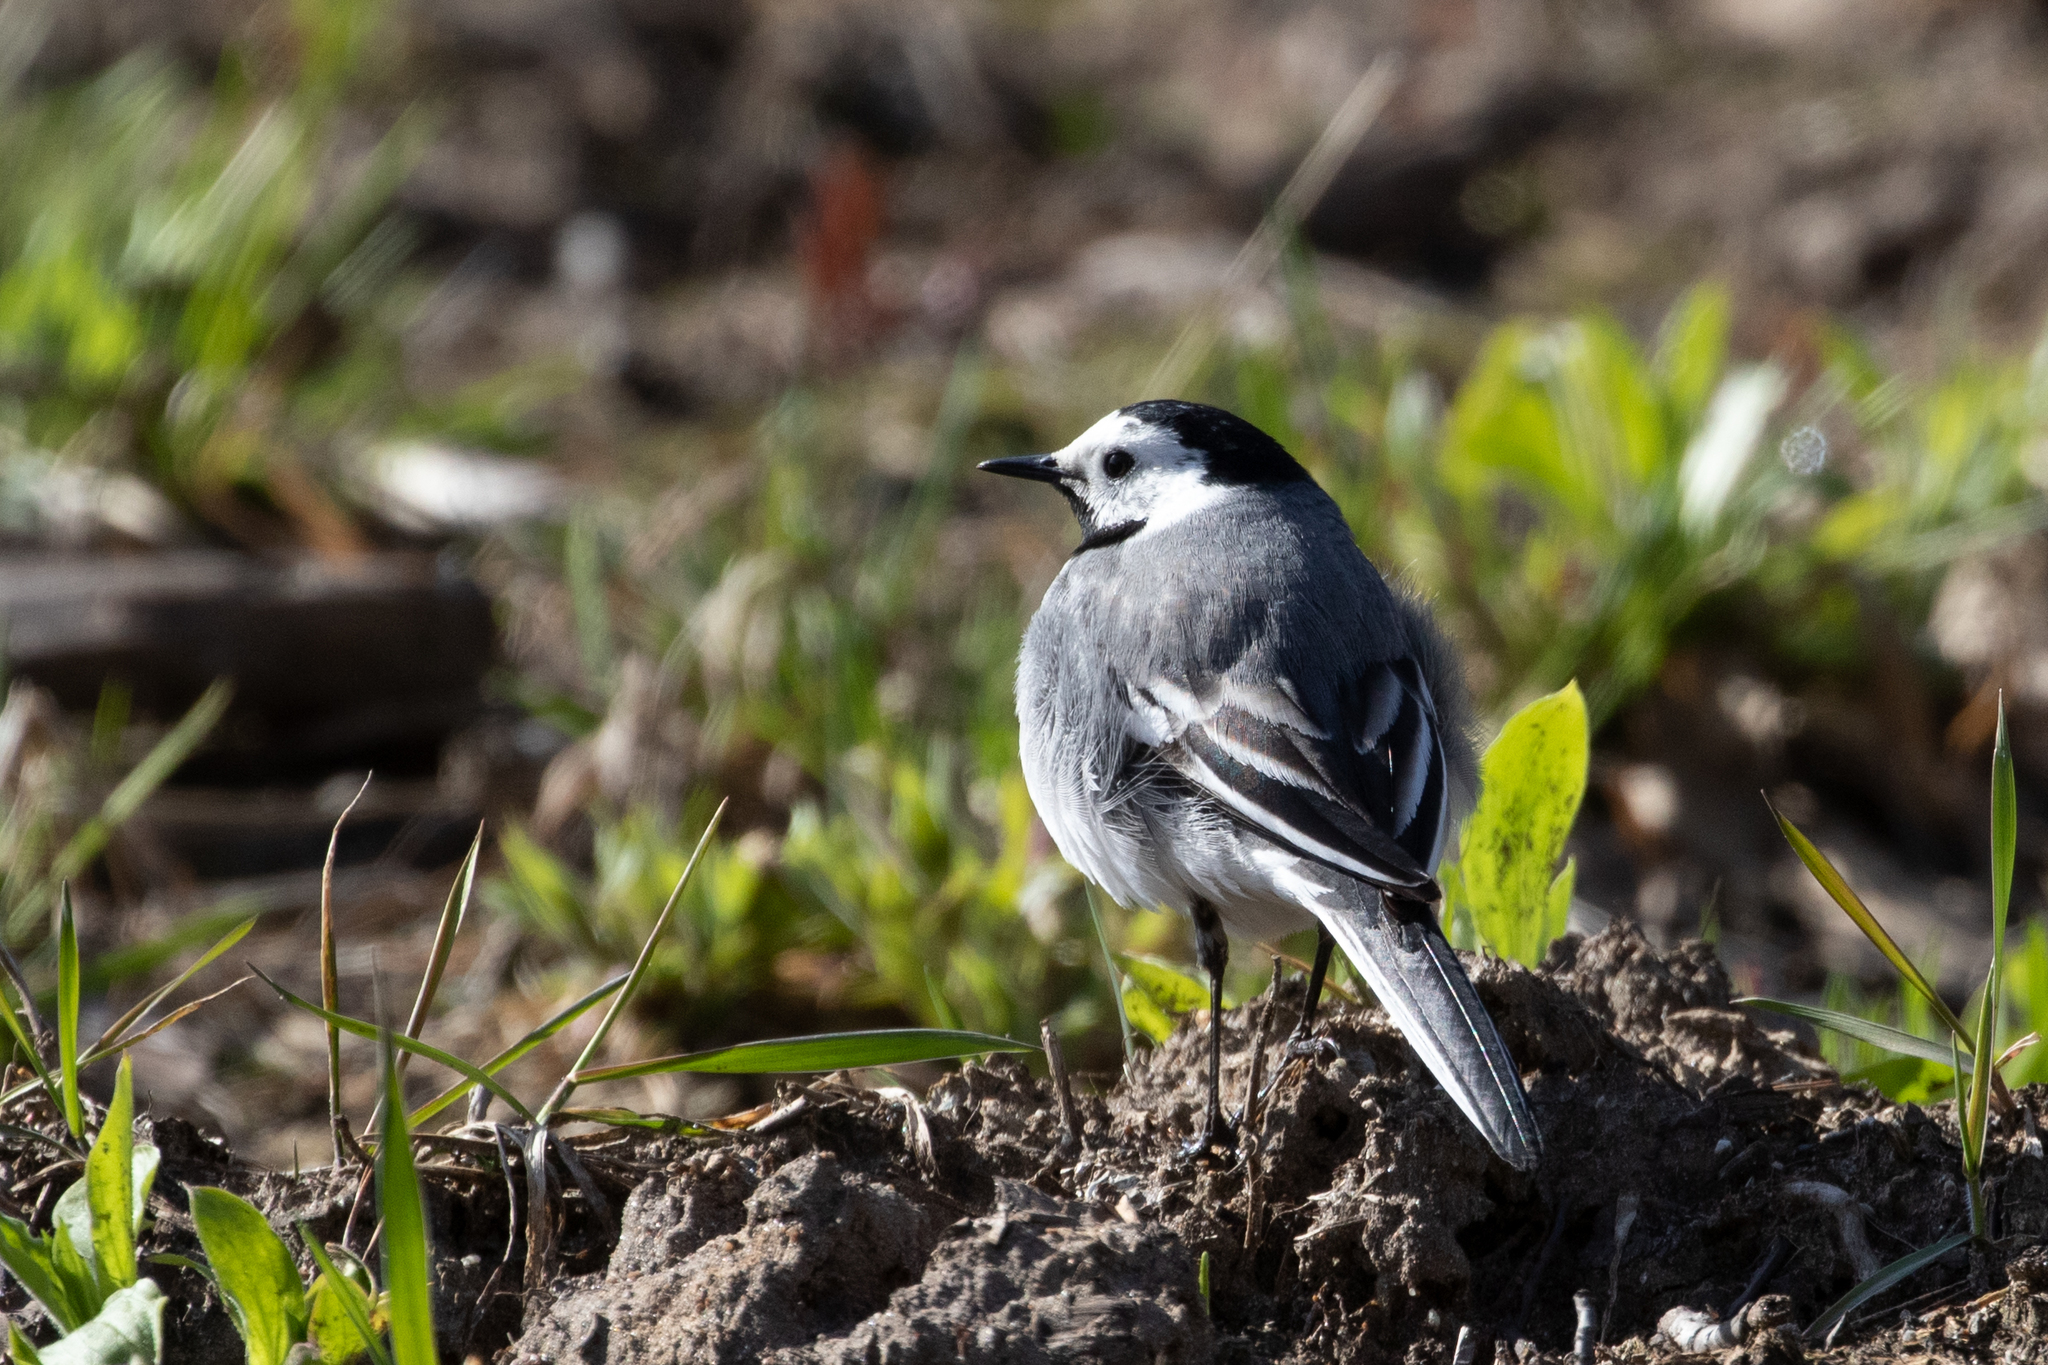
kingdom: Animalia
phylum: Chordata
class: Aves
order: Passeriformes
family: Motacillidae
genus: Motacilla
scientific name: Motacilla alba
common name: White wagtail
